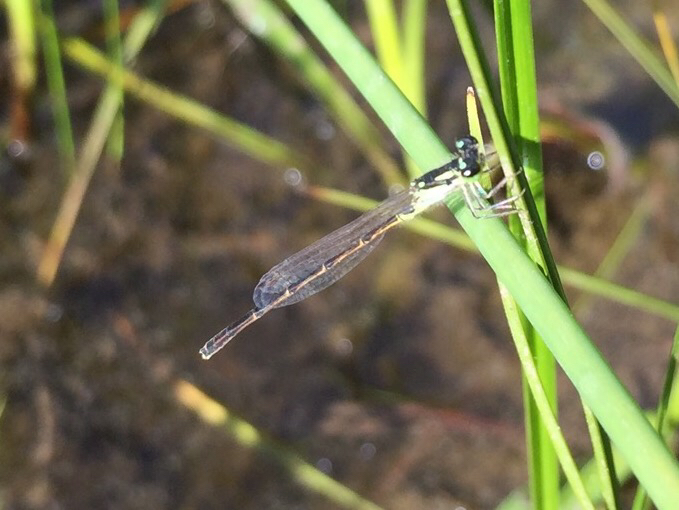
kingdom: Animalia
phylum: Arthropoda
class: Insecta
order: Odonata
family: Coenagrionidae
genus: Ischnura
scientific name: Ischnura posita
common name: Fragile forktail
